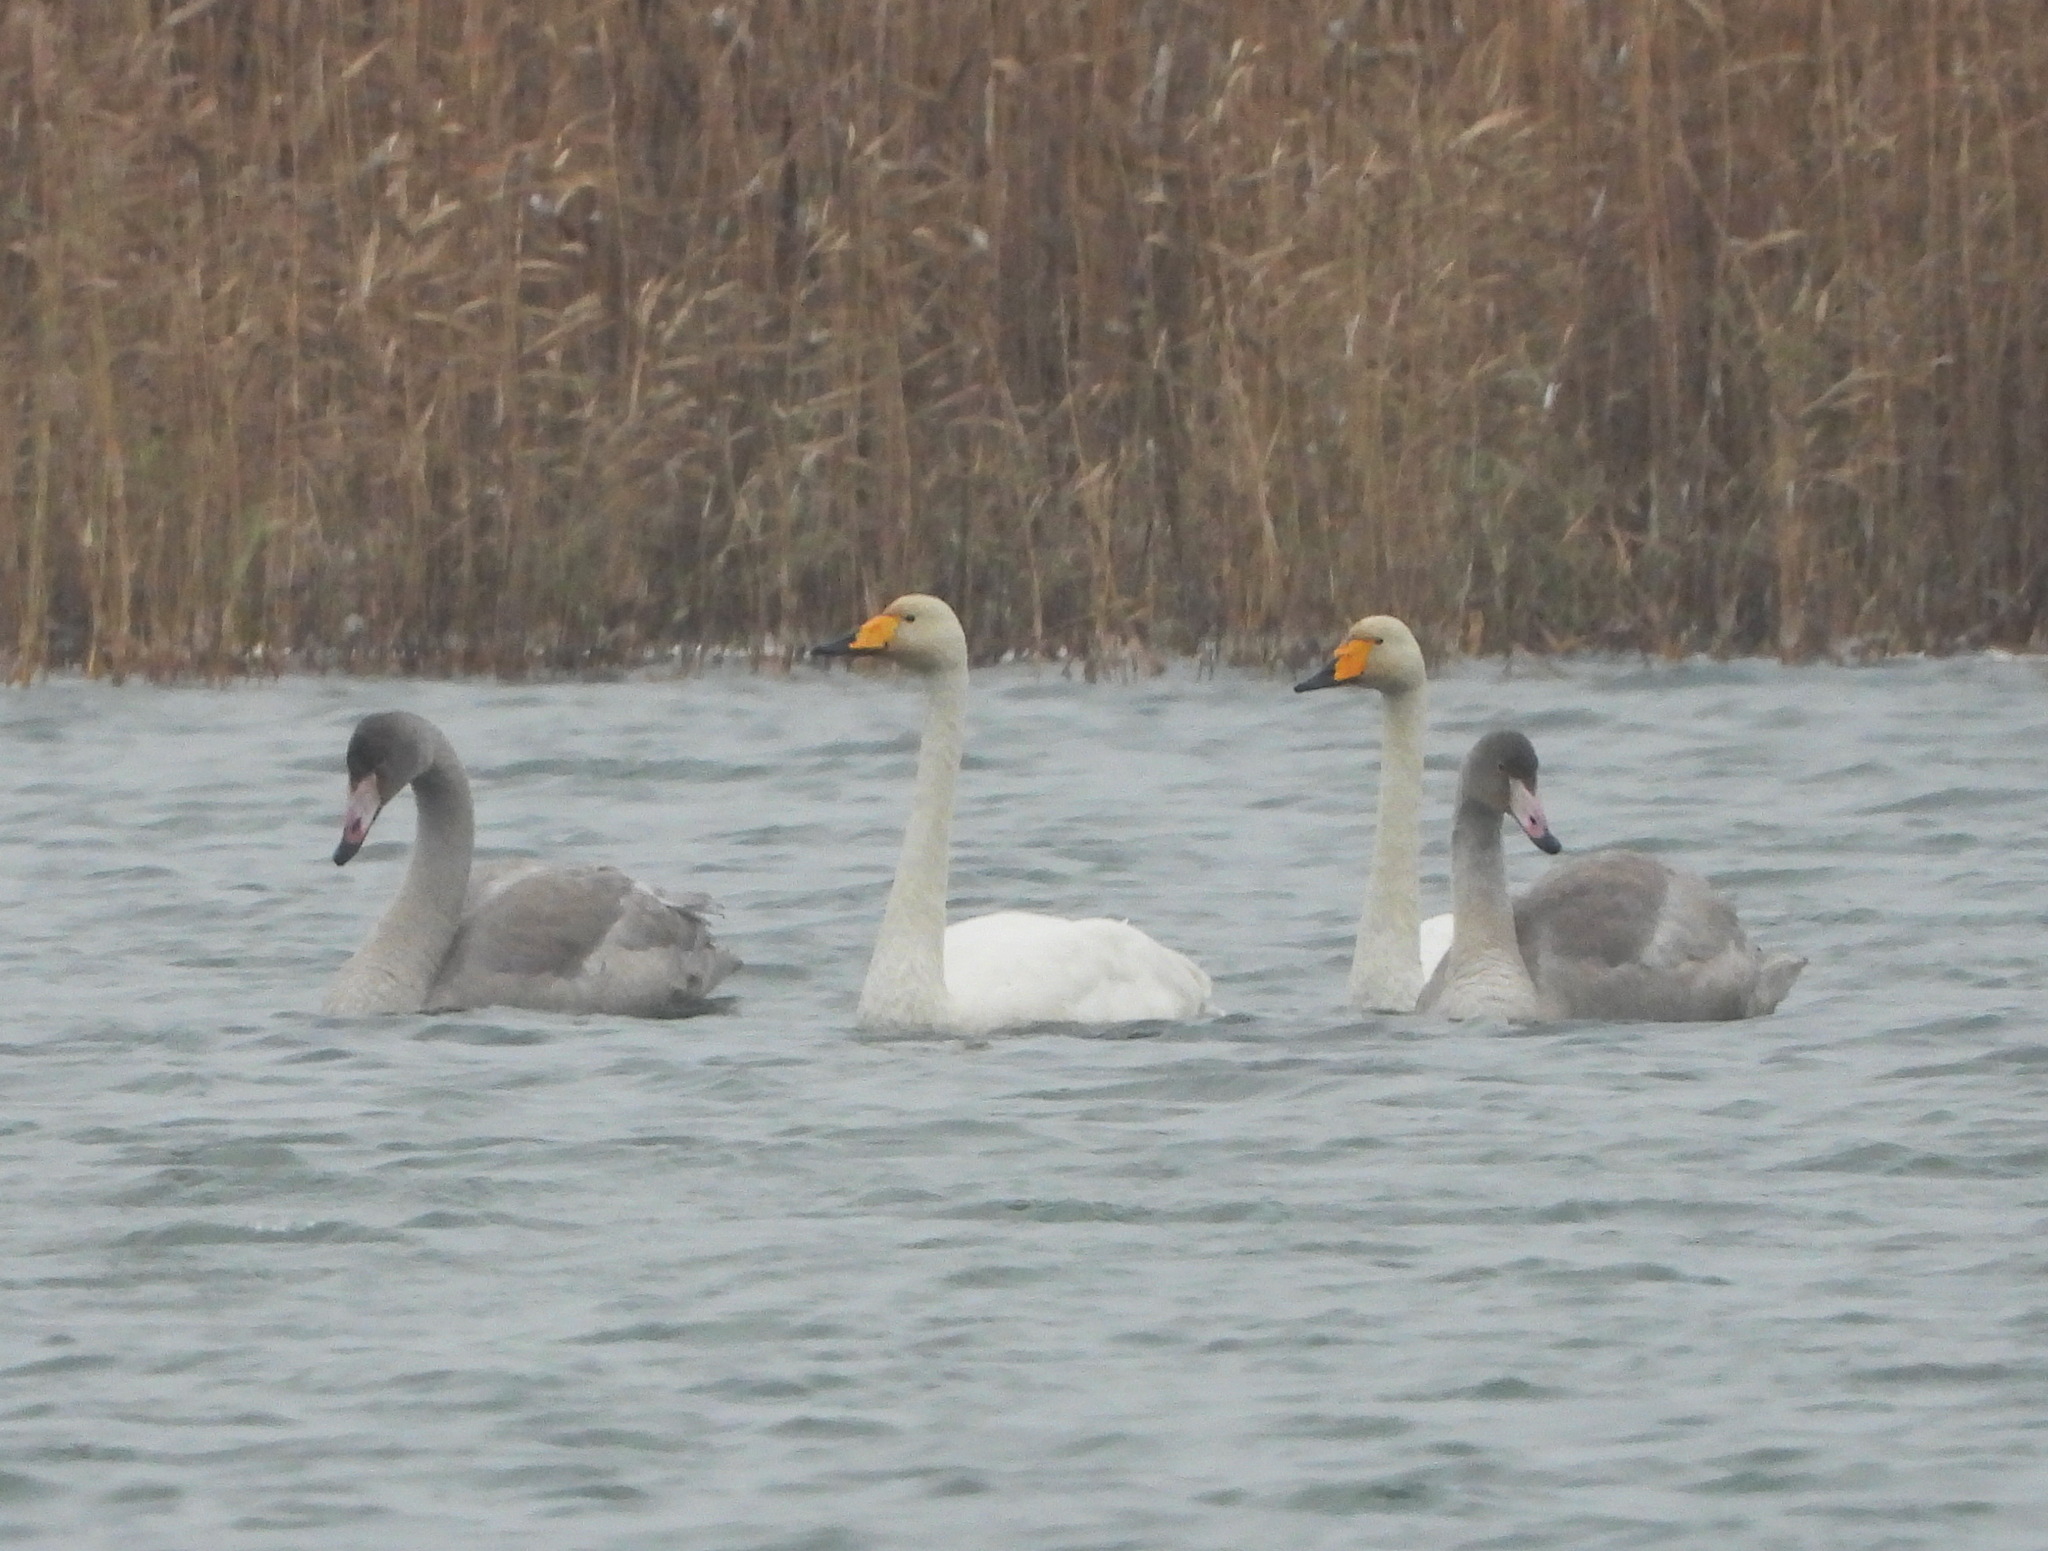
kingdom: Animalia
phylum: Chordata
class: Aves
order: Anseriformes
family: Anatidae
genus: Cygnus
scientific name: Cygnus cygnus
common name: Whooper swan
